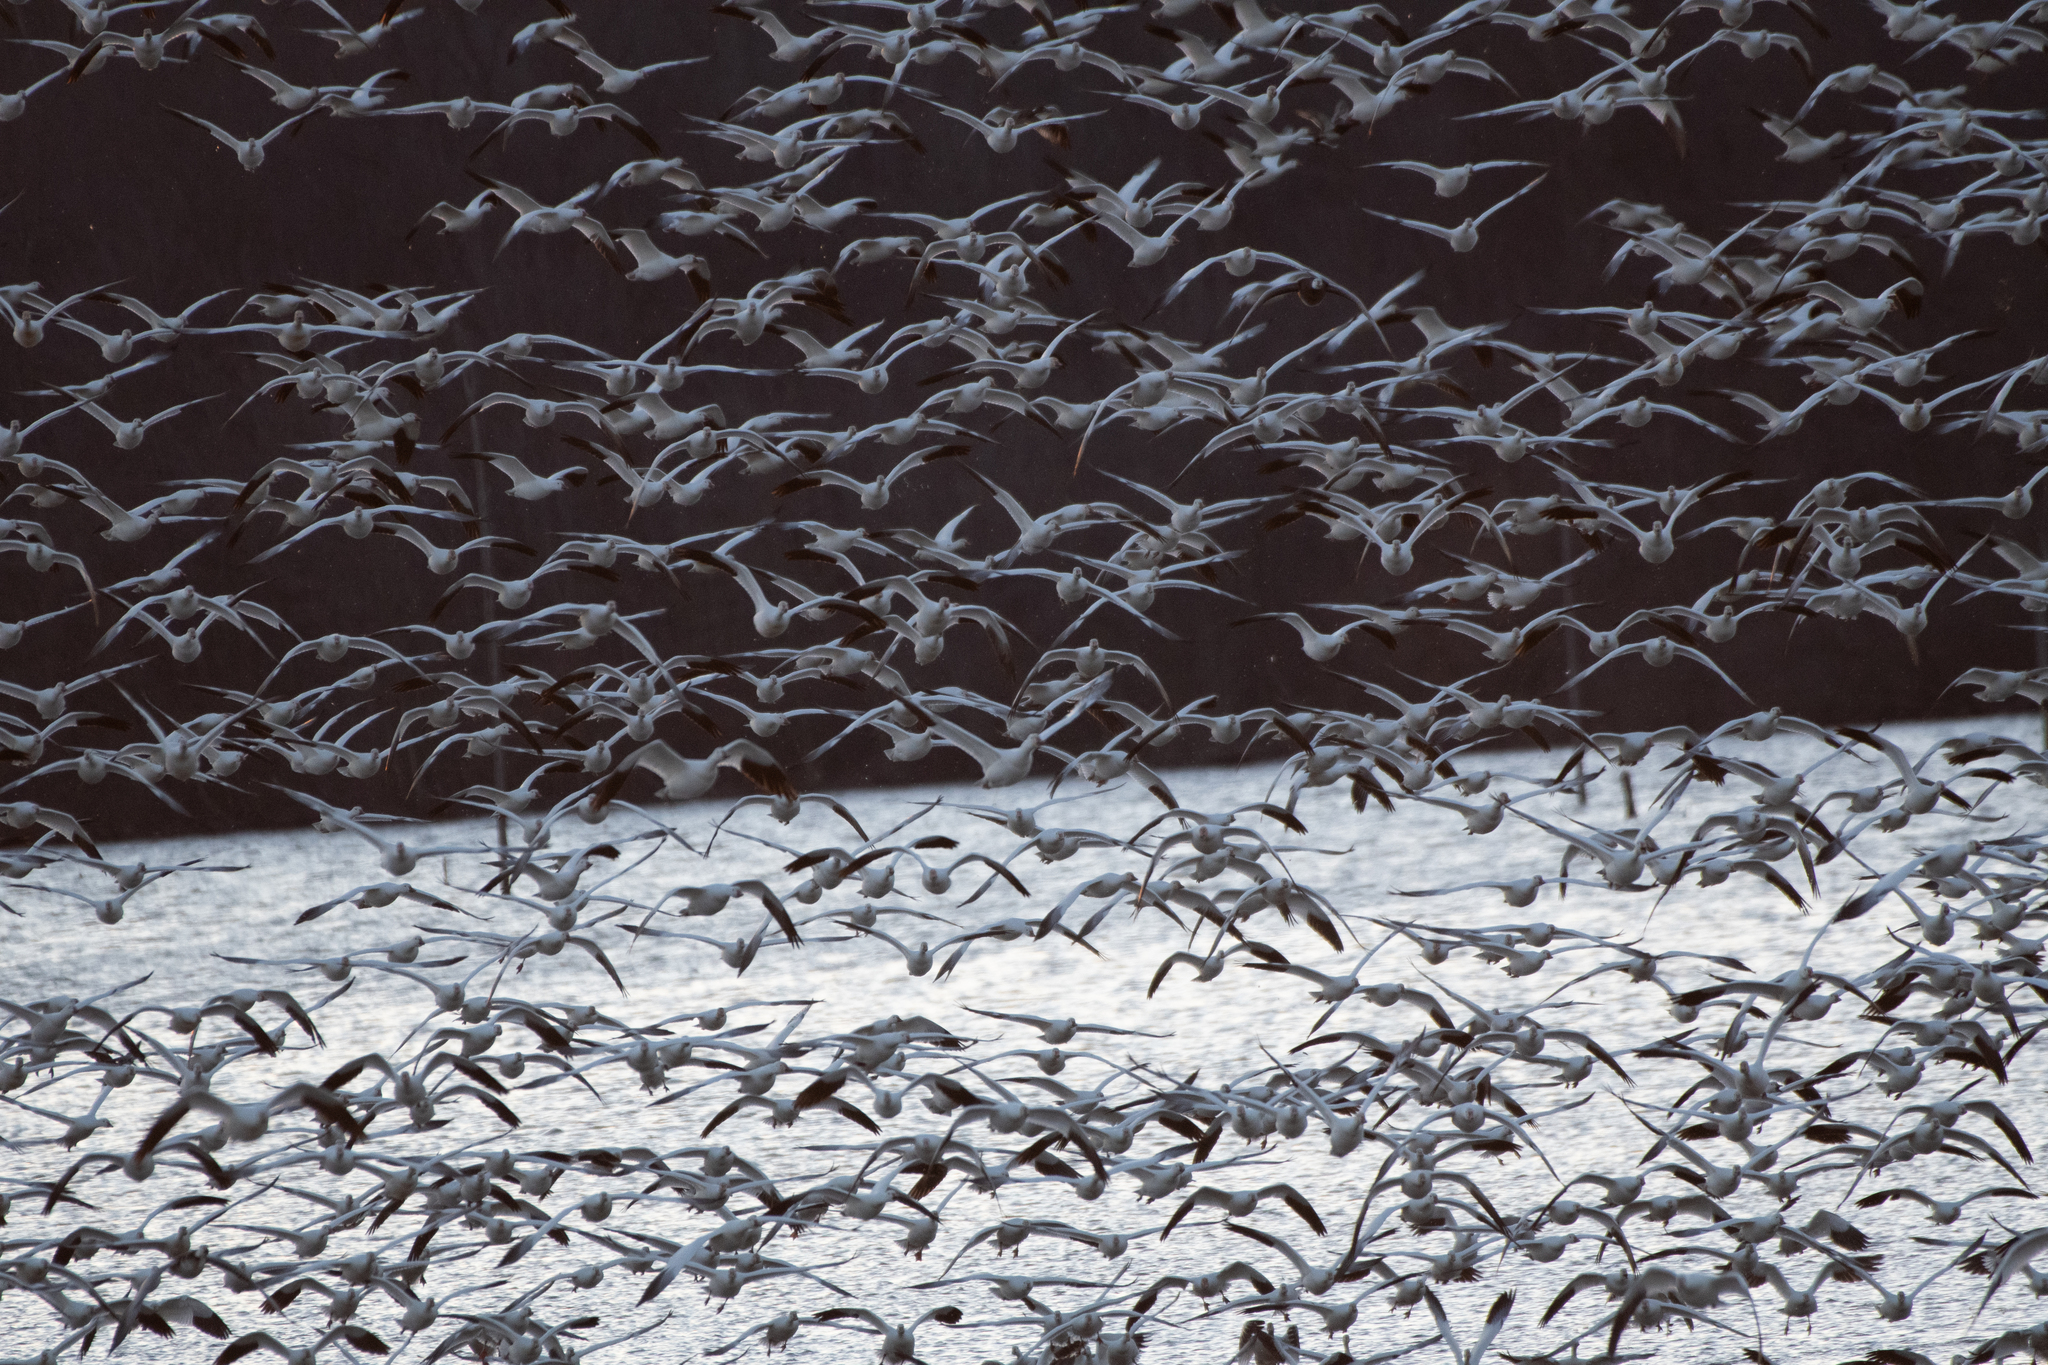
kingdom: Animalia
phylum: Chordata
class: Aves
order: Anseriformes
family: Anatidae
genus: Anser
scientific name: Anser caerulescens
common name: Snow goose
